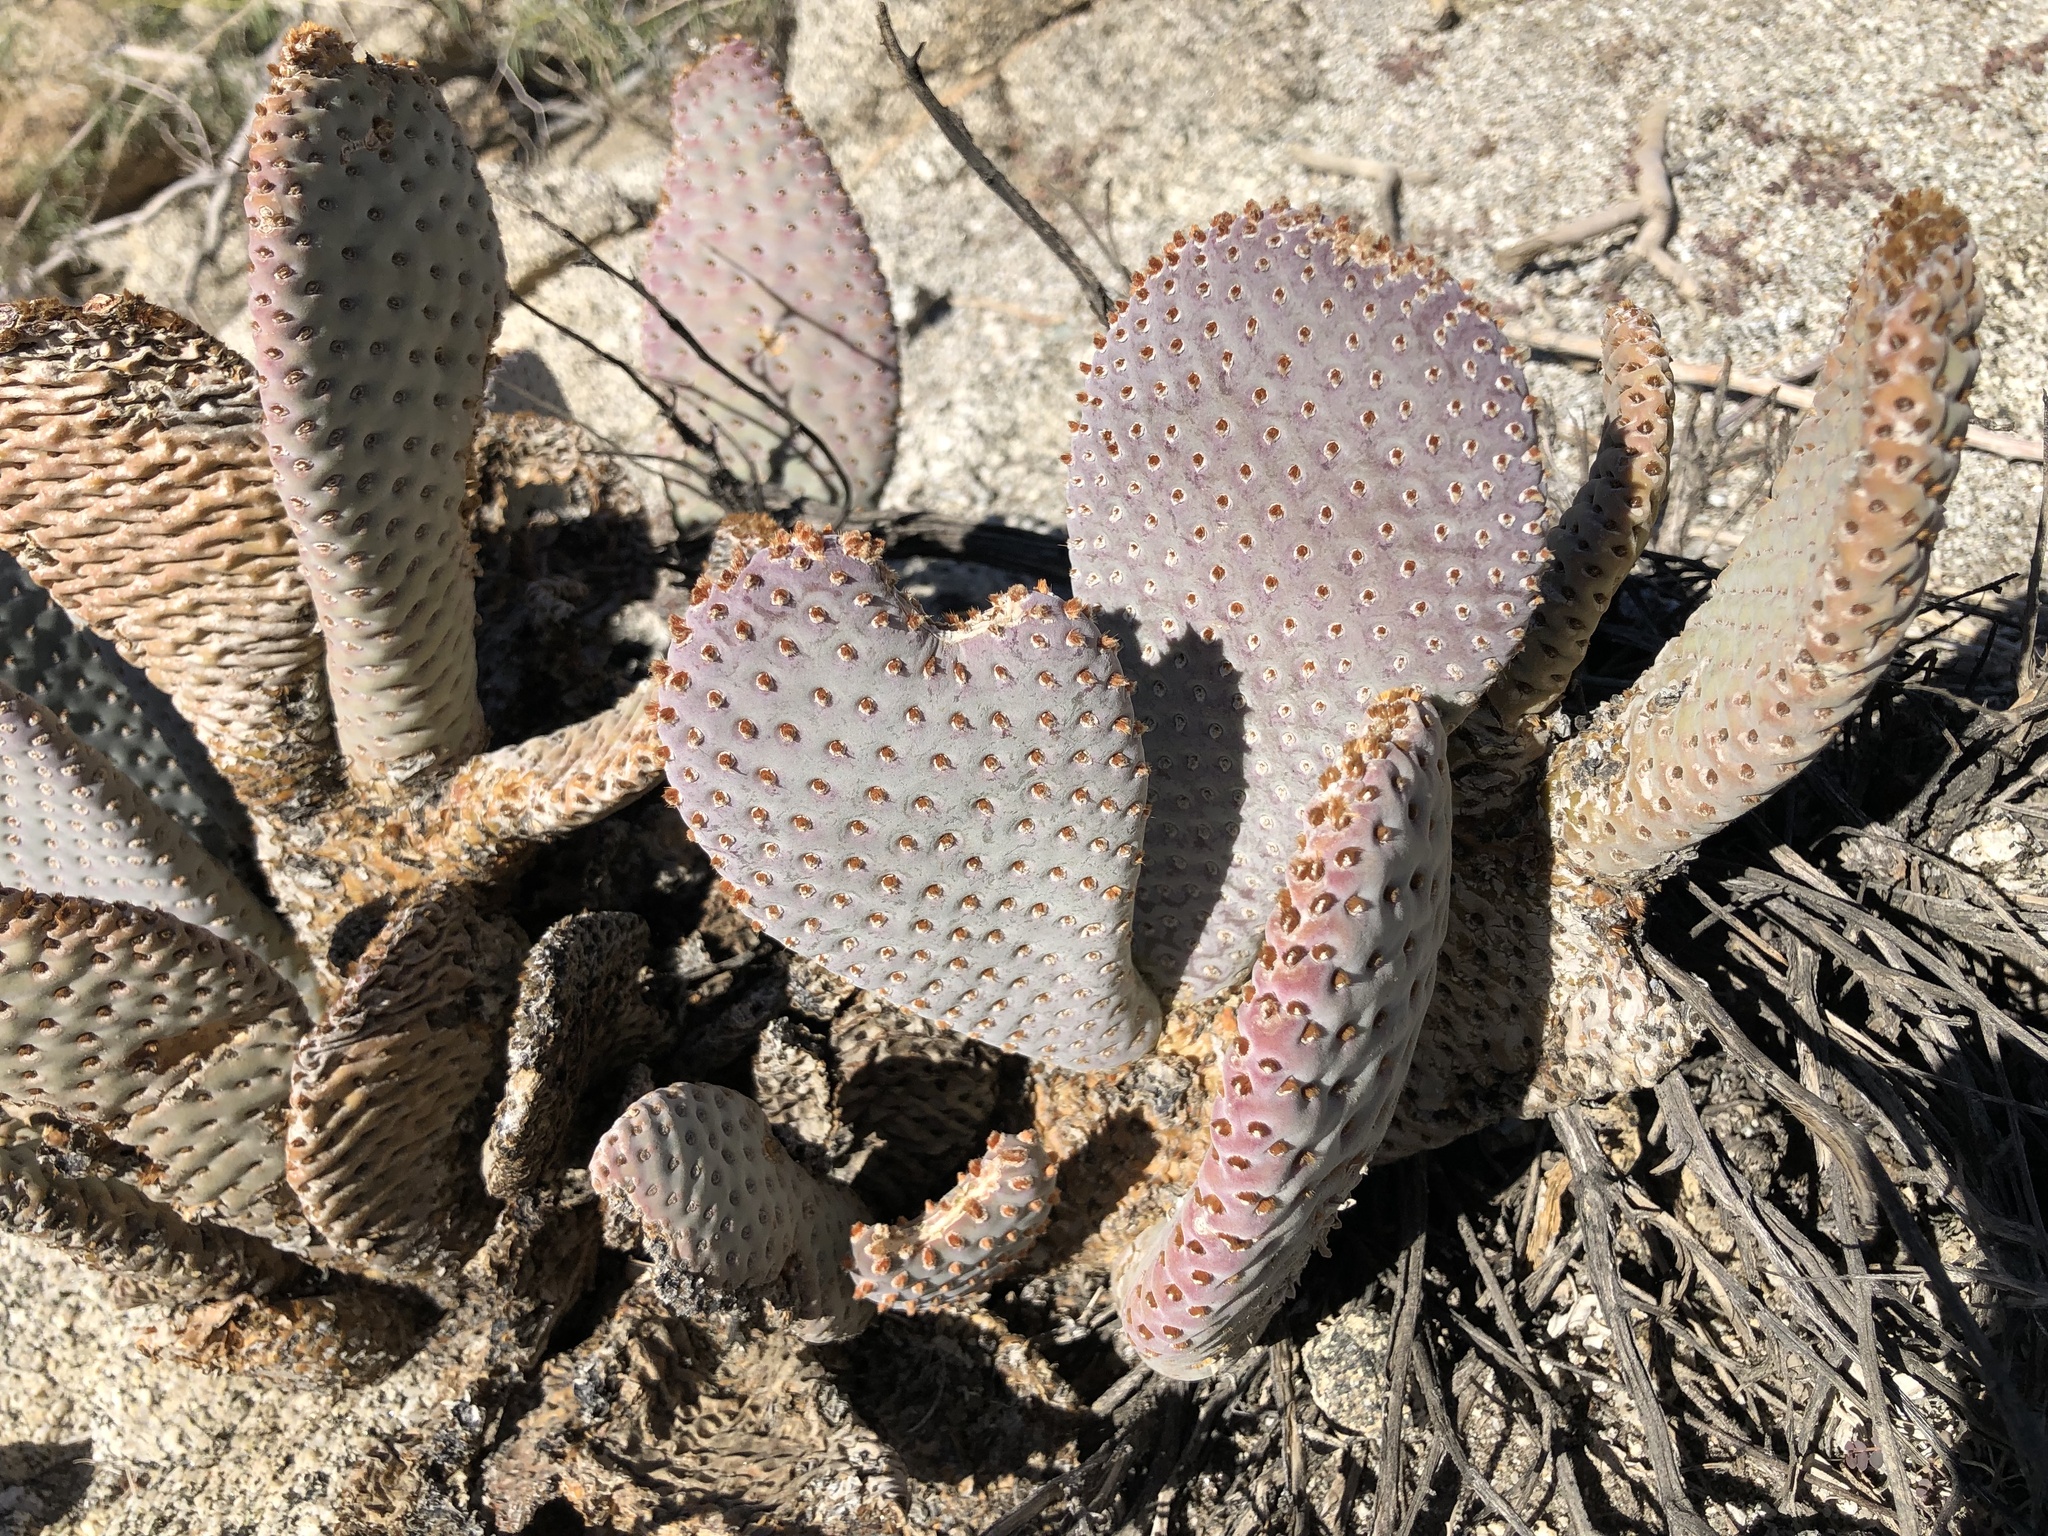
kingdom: Plantae
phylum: Tracheophyta
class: Magnoliopsida
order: Caryophyllales
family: Cactaceae
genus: Opuntia
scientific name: Opuntia basilaris
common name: Beavertail prickly-pear
